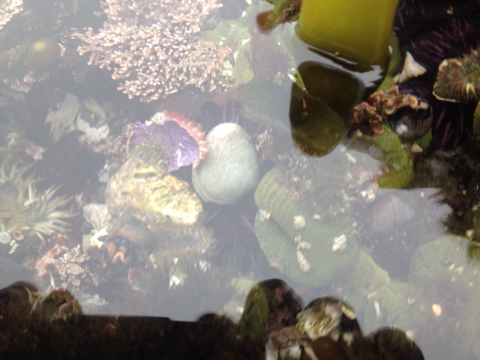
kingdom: Animalia
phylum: Cnidaria
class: Anthozoa
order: Actiniaria
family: Actiniidae
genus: Anthopleura
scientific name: Anthopleura elegantissima
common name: Clonal anemone
